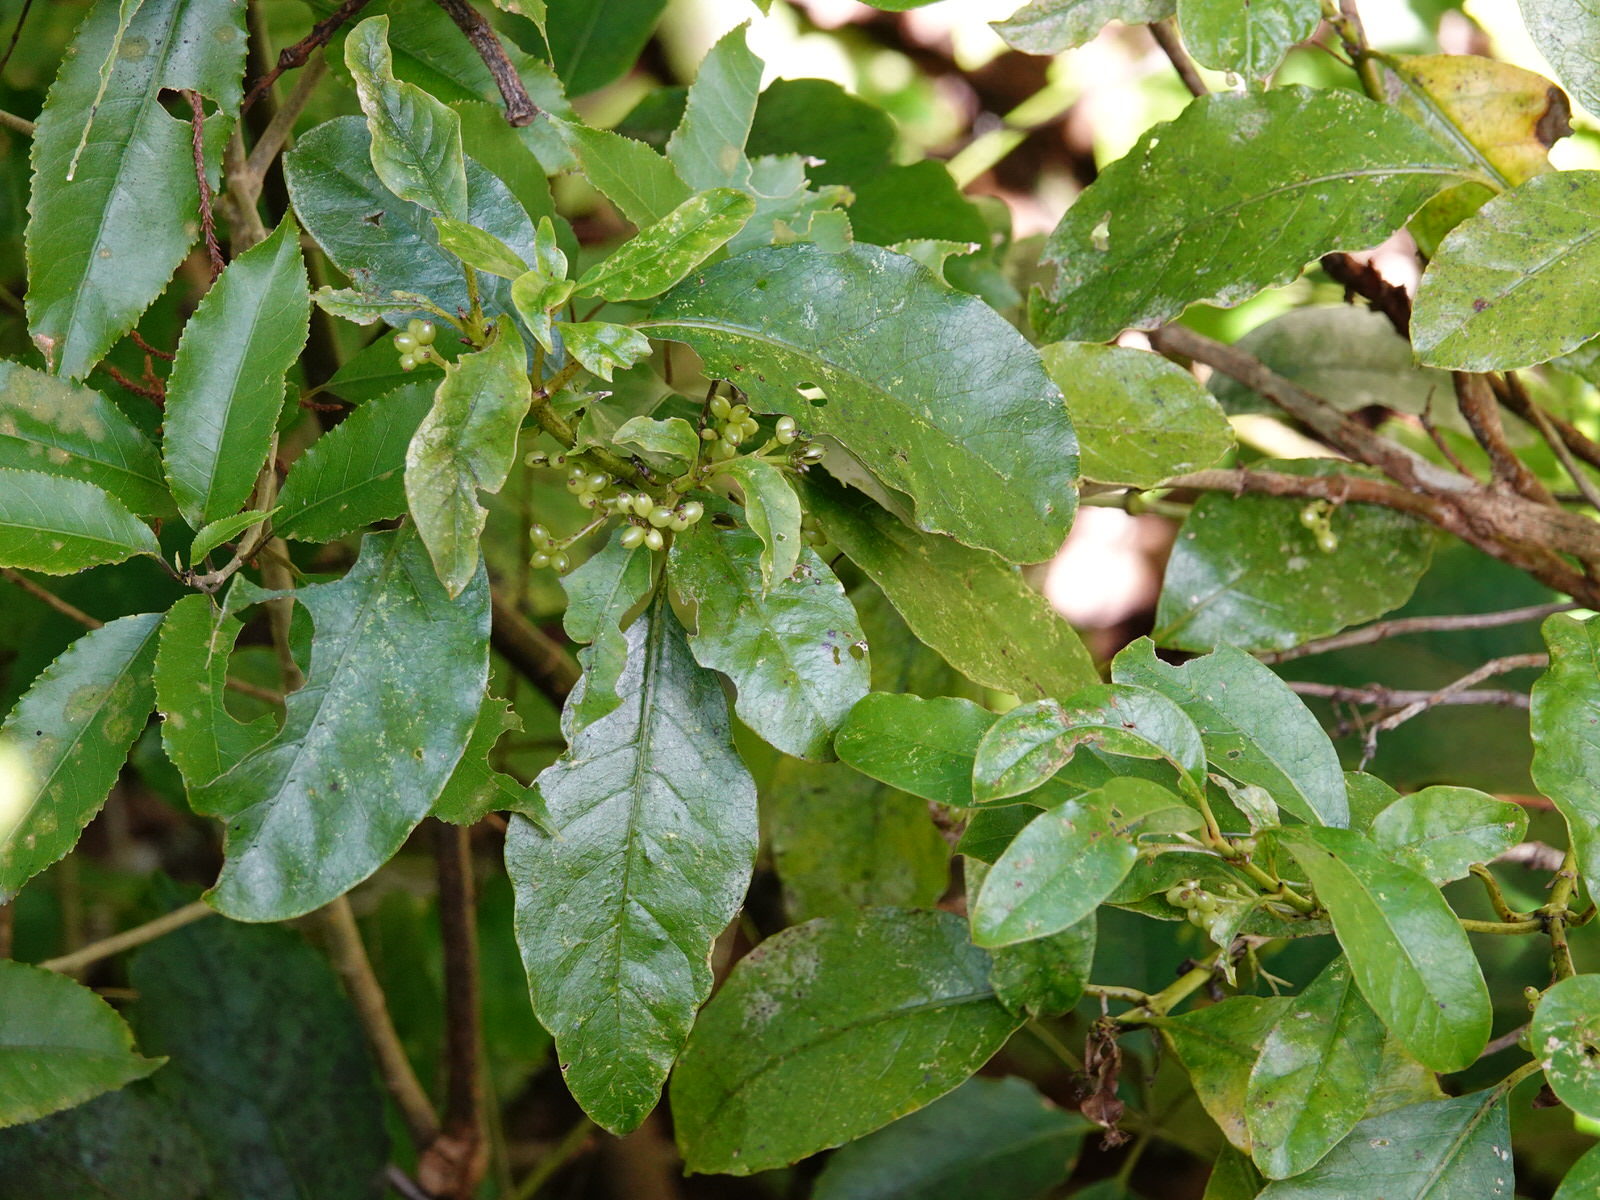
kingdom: Plantae
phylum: Tracheophyta
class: Magnoliopsida
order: Gentianales
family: Rubiaceae
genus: Coprosma
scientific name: Coprosma autumnalis
